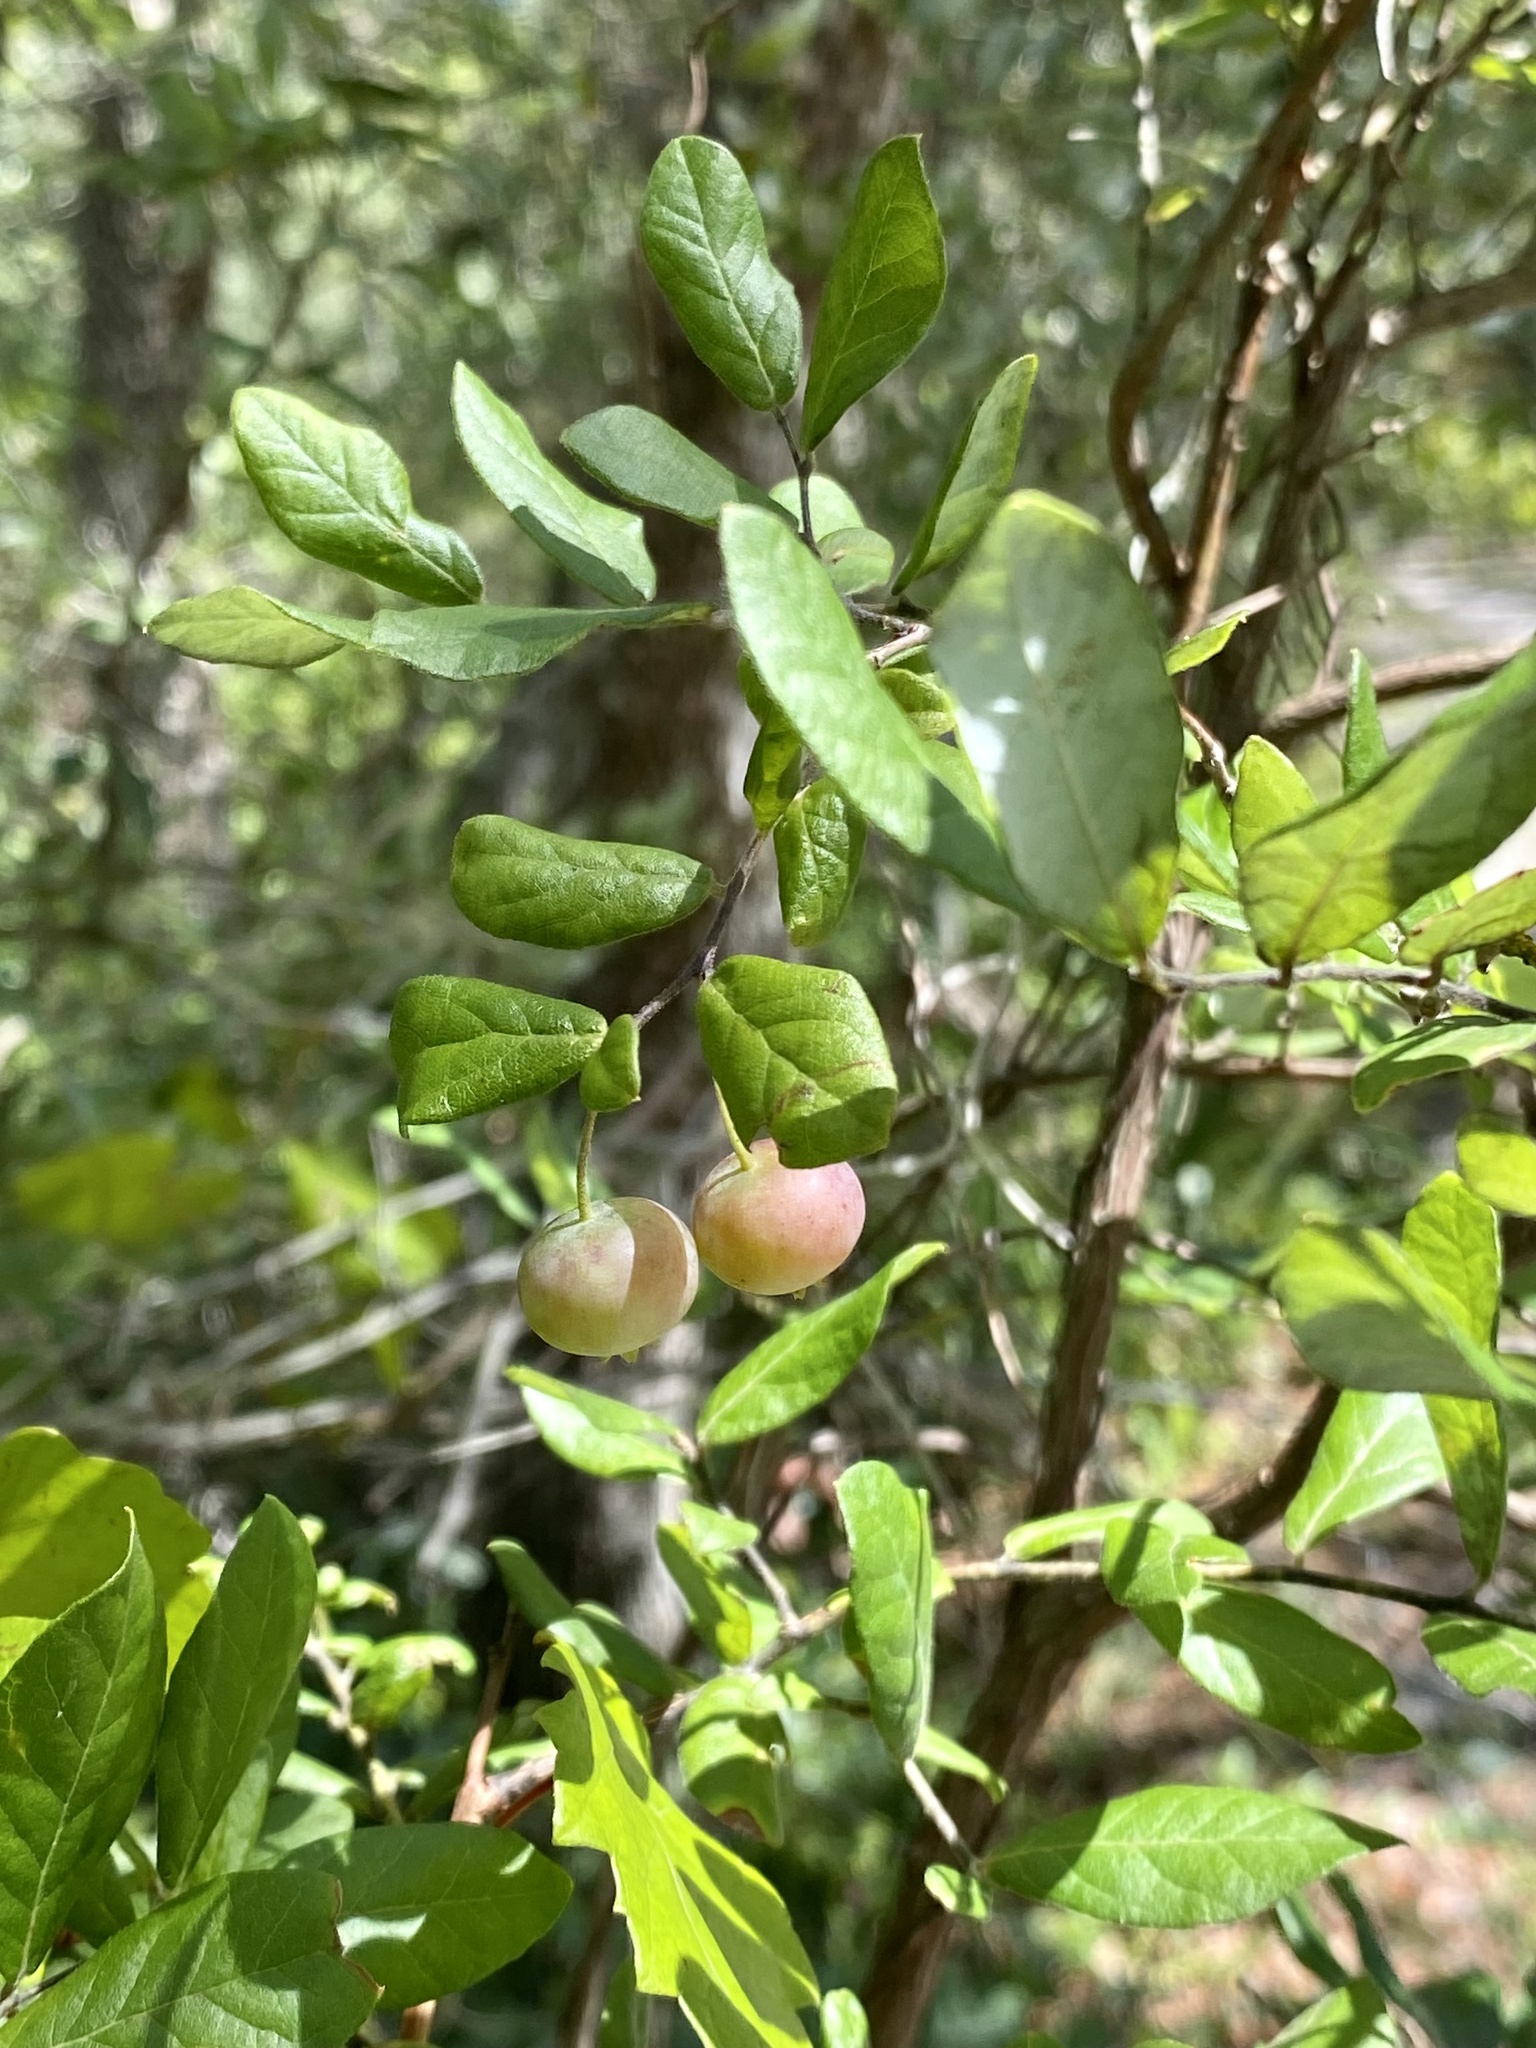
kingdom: Plantae
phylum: Tracheophyta
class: Magnoliopsida
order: Ericales
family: Ericaceae
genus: Vaccinium
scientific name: Vaccinium stamineum
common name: Deerberry
